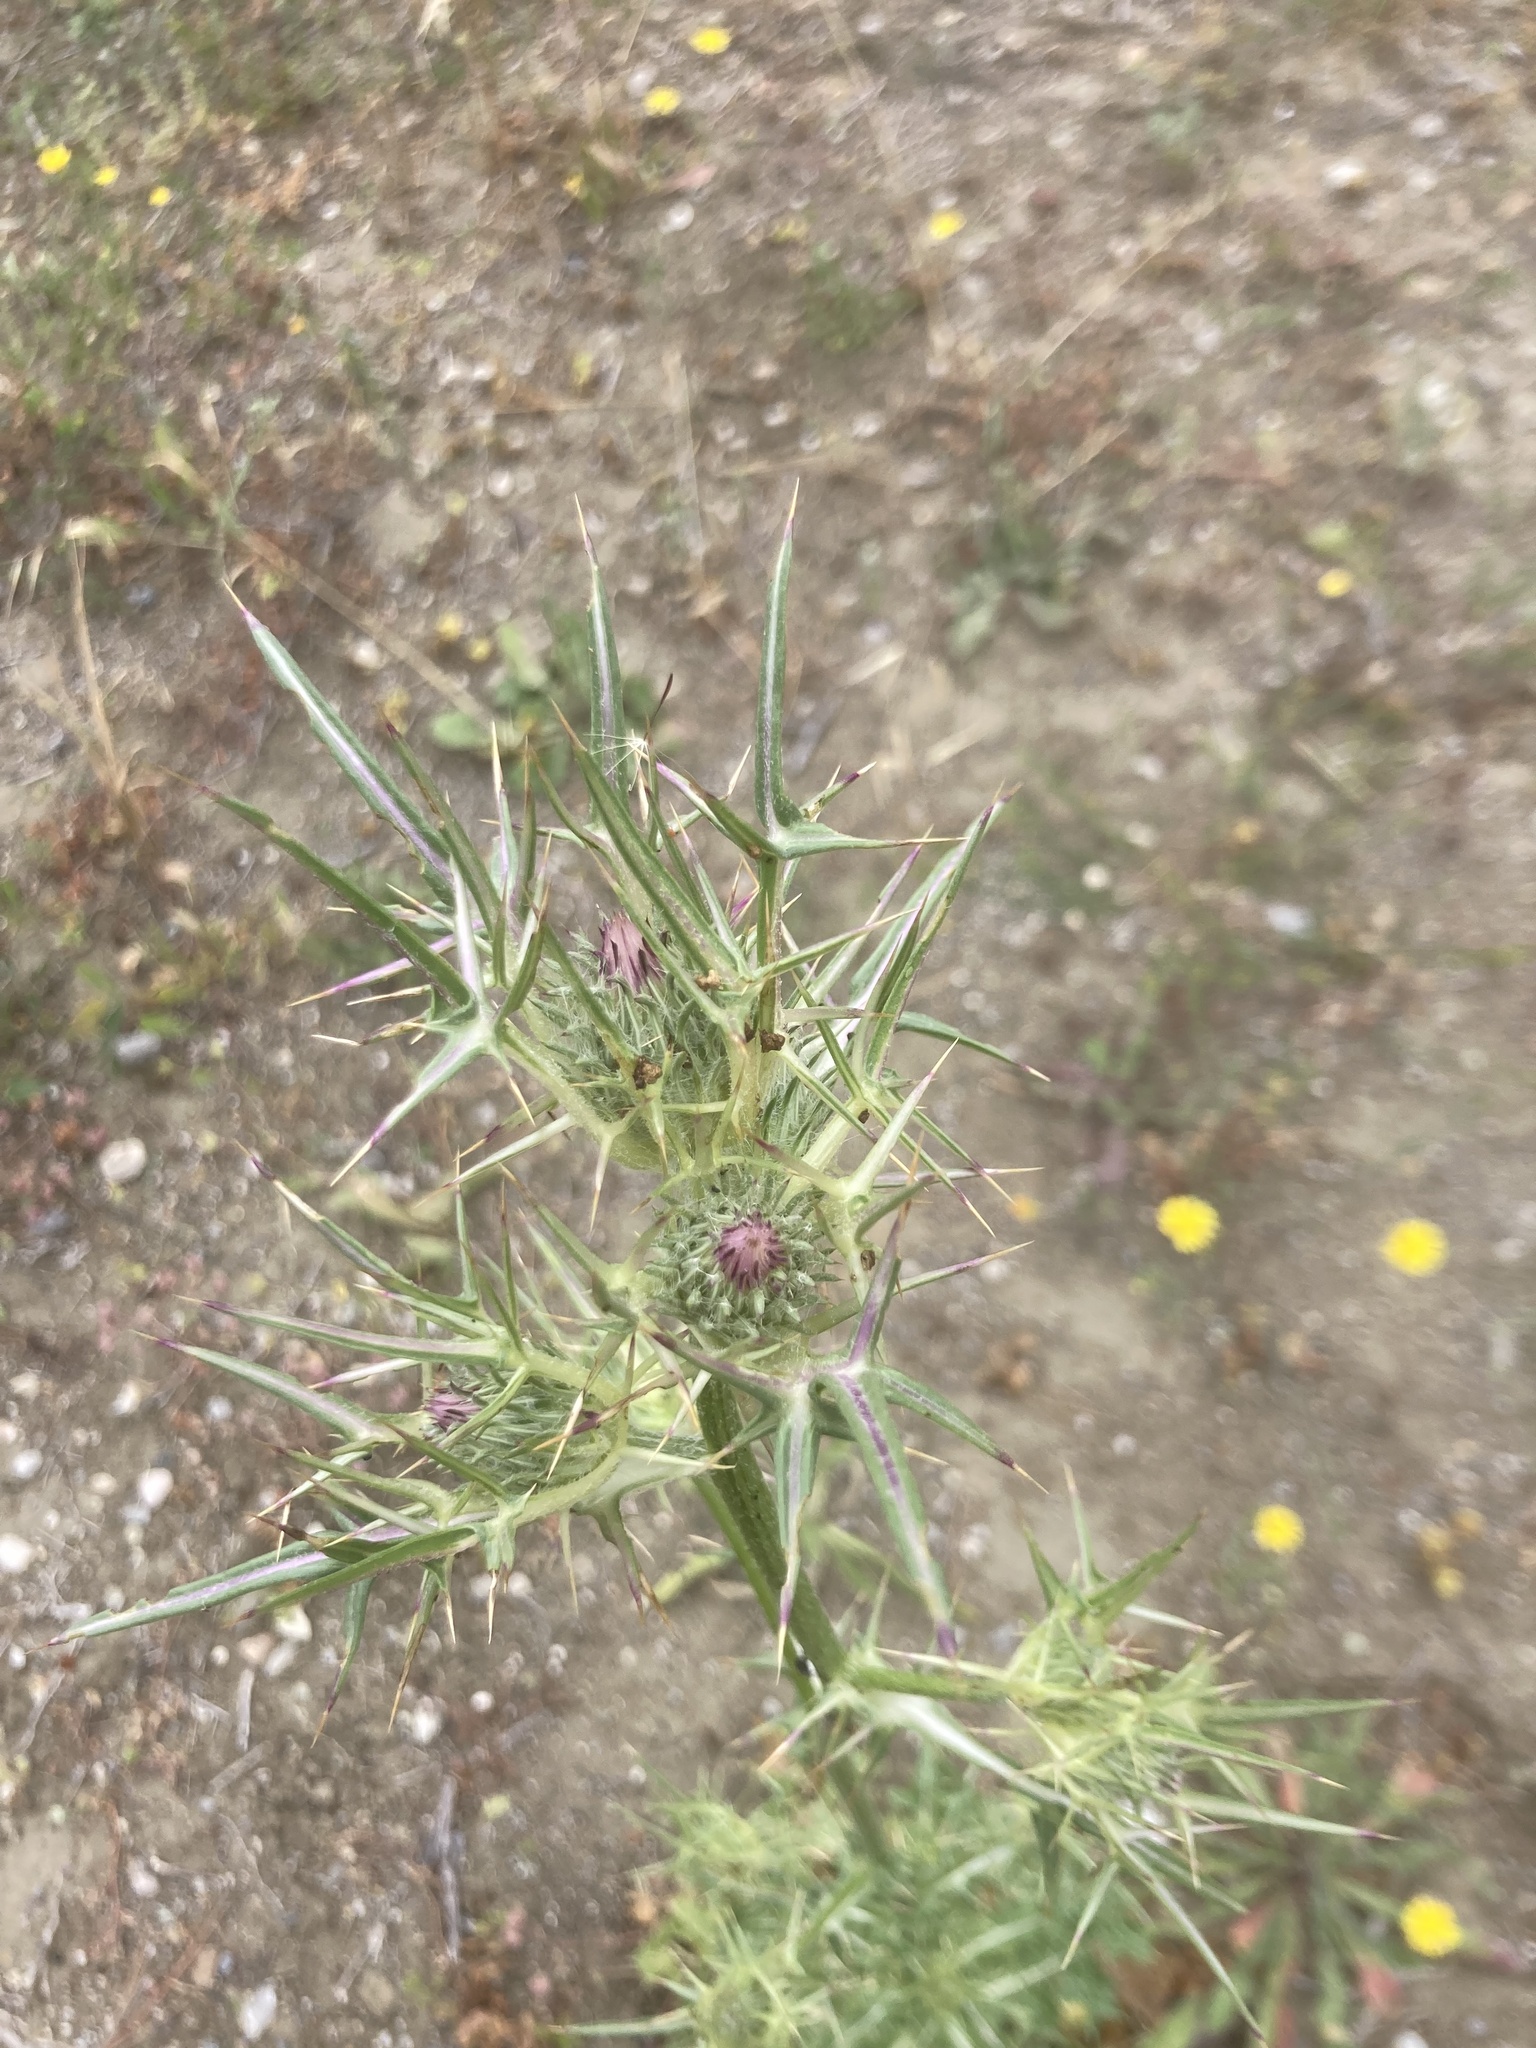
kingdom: Plantae
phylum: Tracheophyta
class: Magnoliopsida
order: Asterales
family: Asteraceae
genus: Notobasis
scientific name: Notobasis syriaca
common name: Syrian thistle
